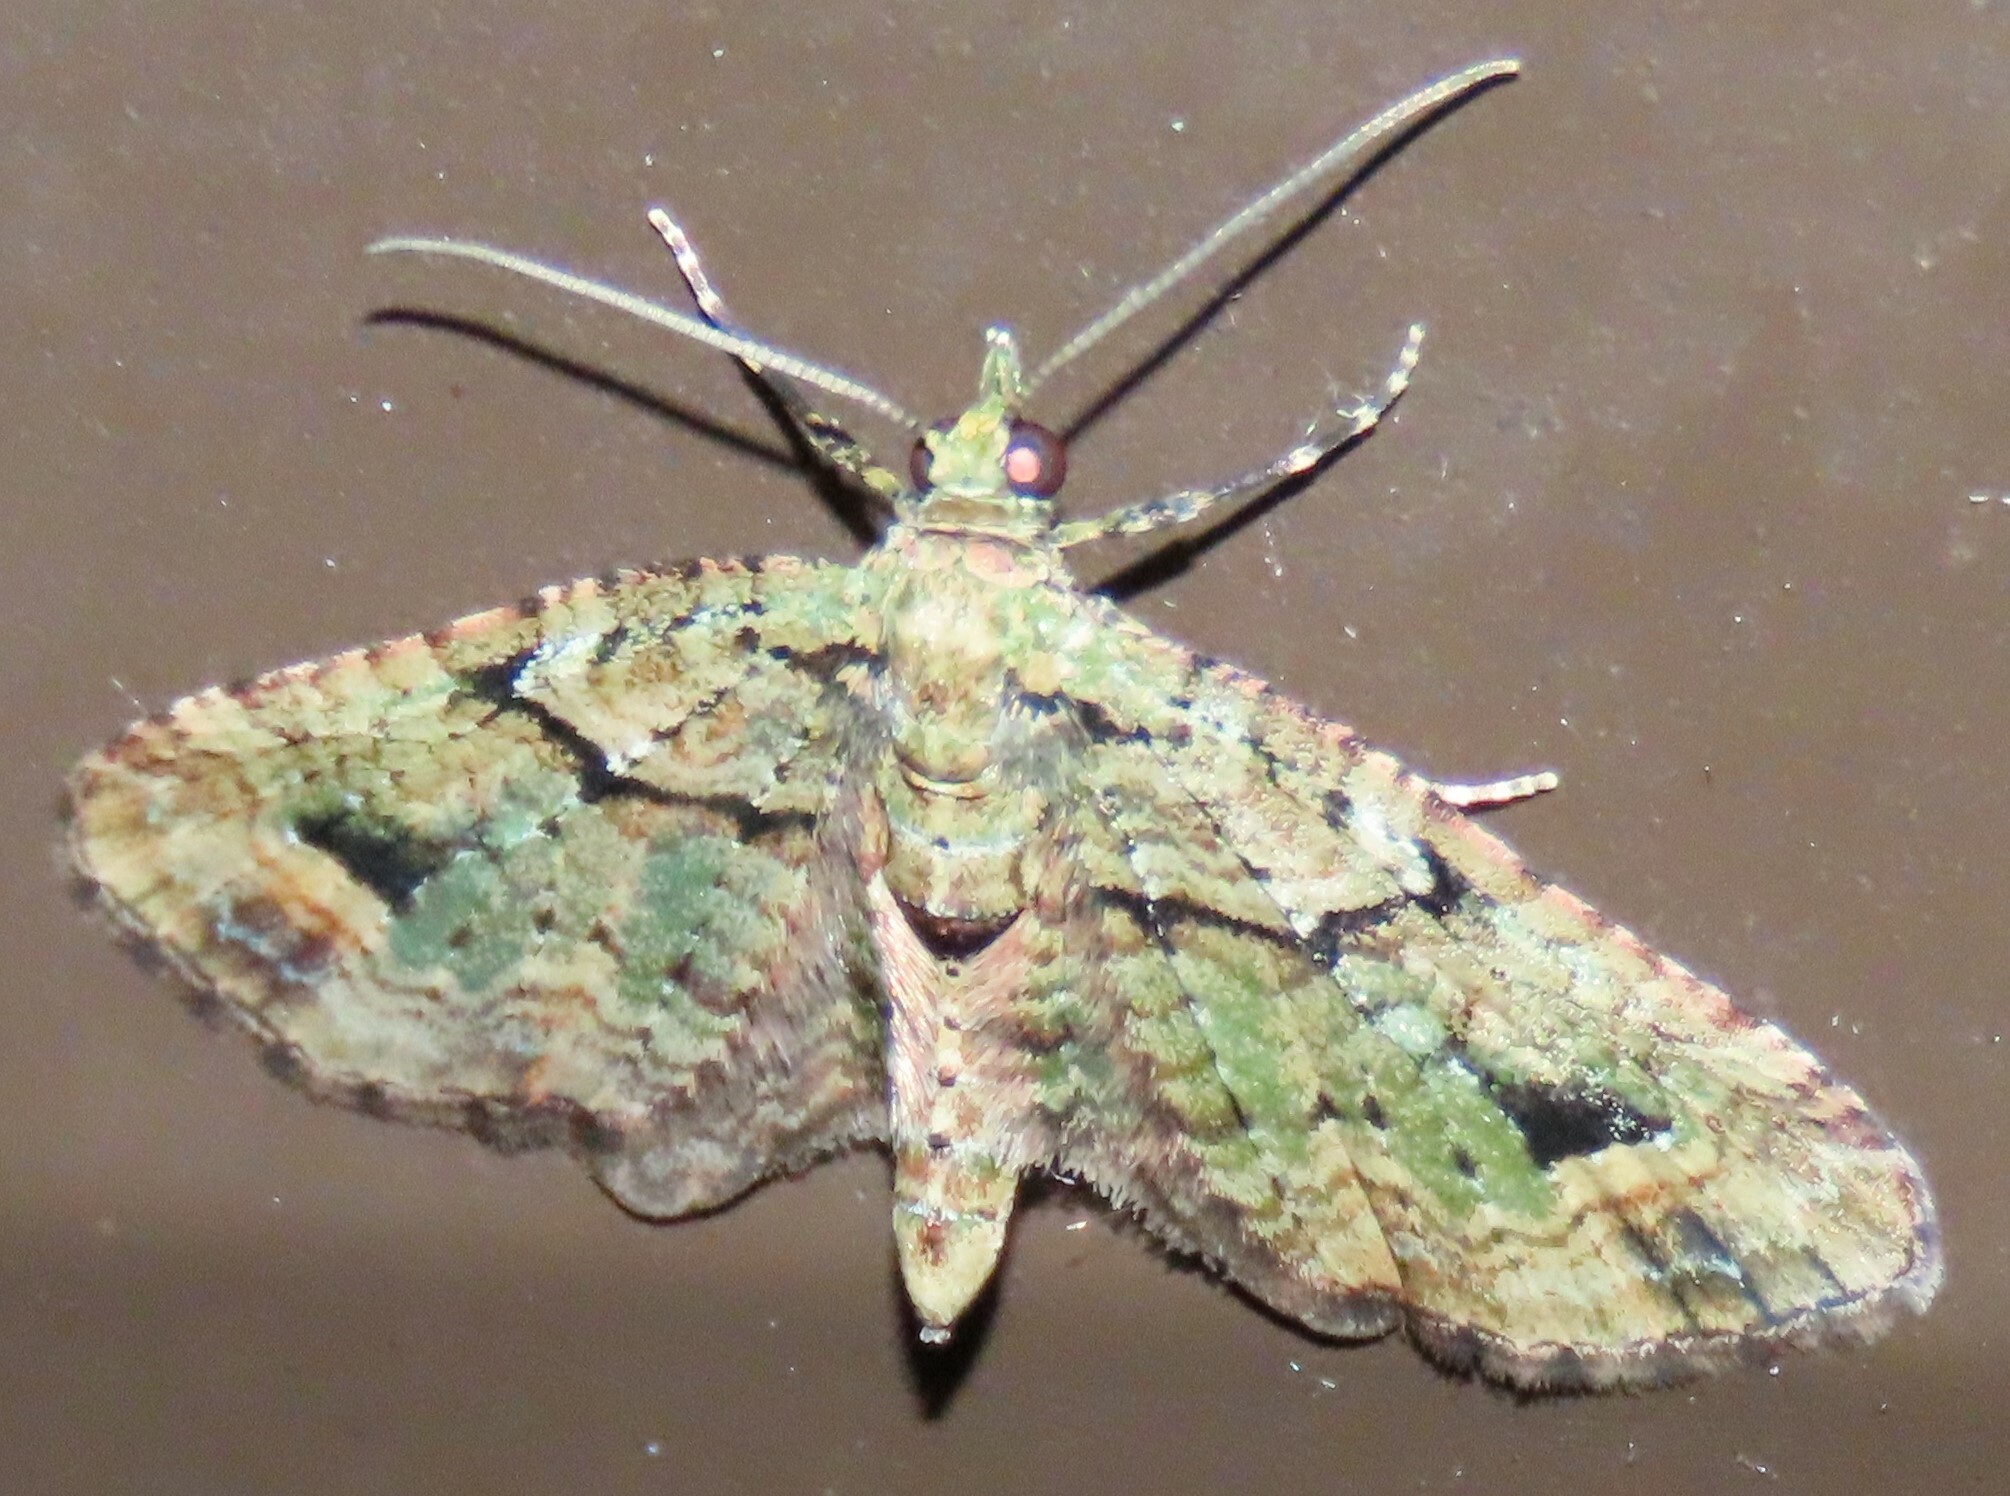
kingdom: Animalia
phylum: Arthropoda
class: Insecta
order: Lepidoptera
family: Geometridae
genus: Idaea
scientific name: Idaea mutanda
